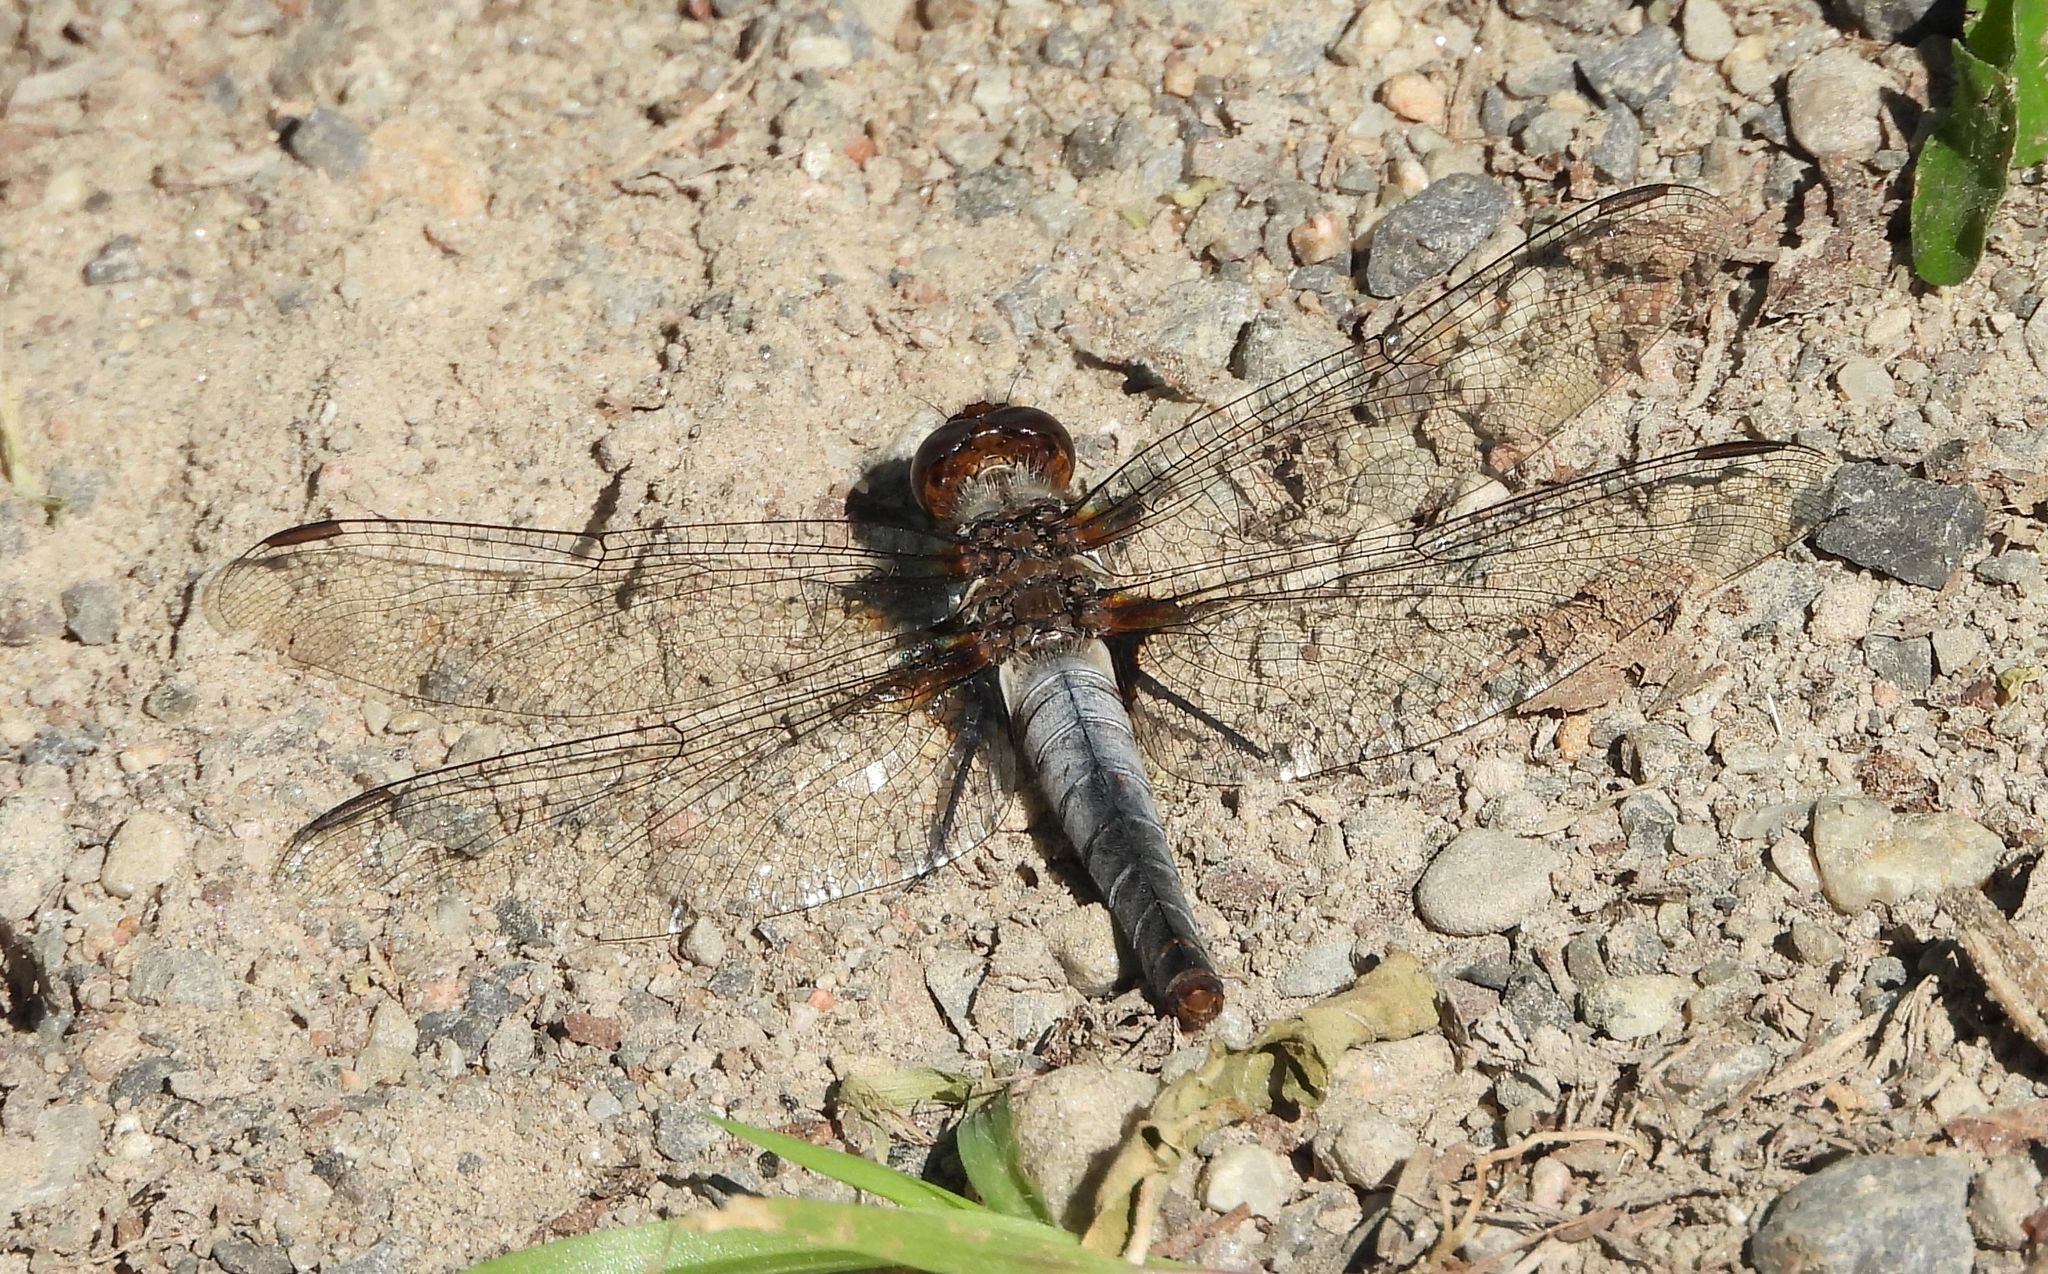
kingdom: Animalia
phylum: Arthropoda
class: Insecta
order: Odonata
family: Libellulidae
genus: Ladona
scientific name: Ladona julia
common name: Chalk-fronted corporal
